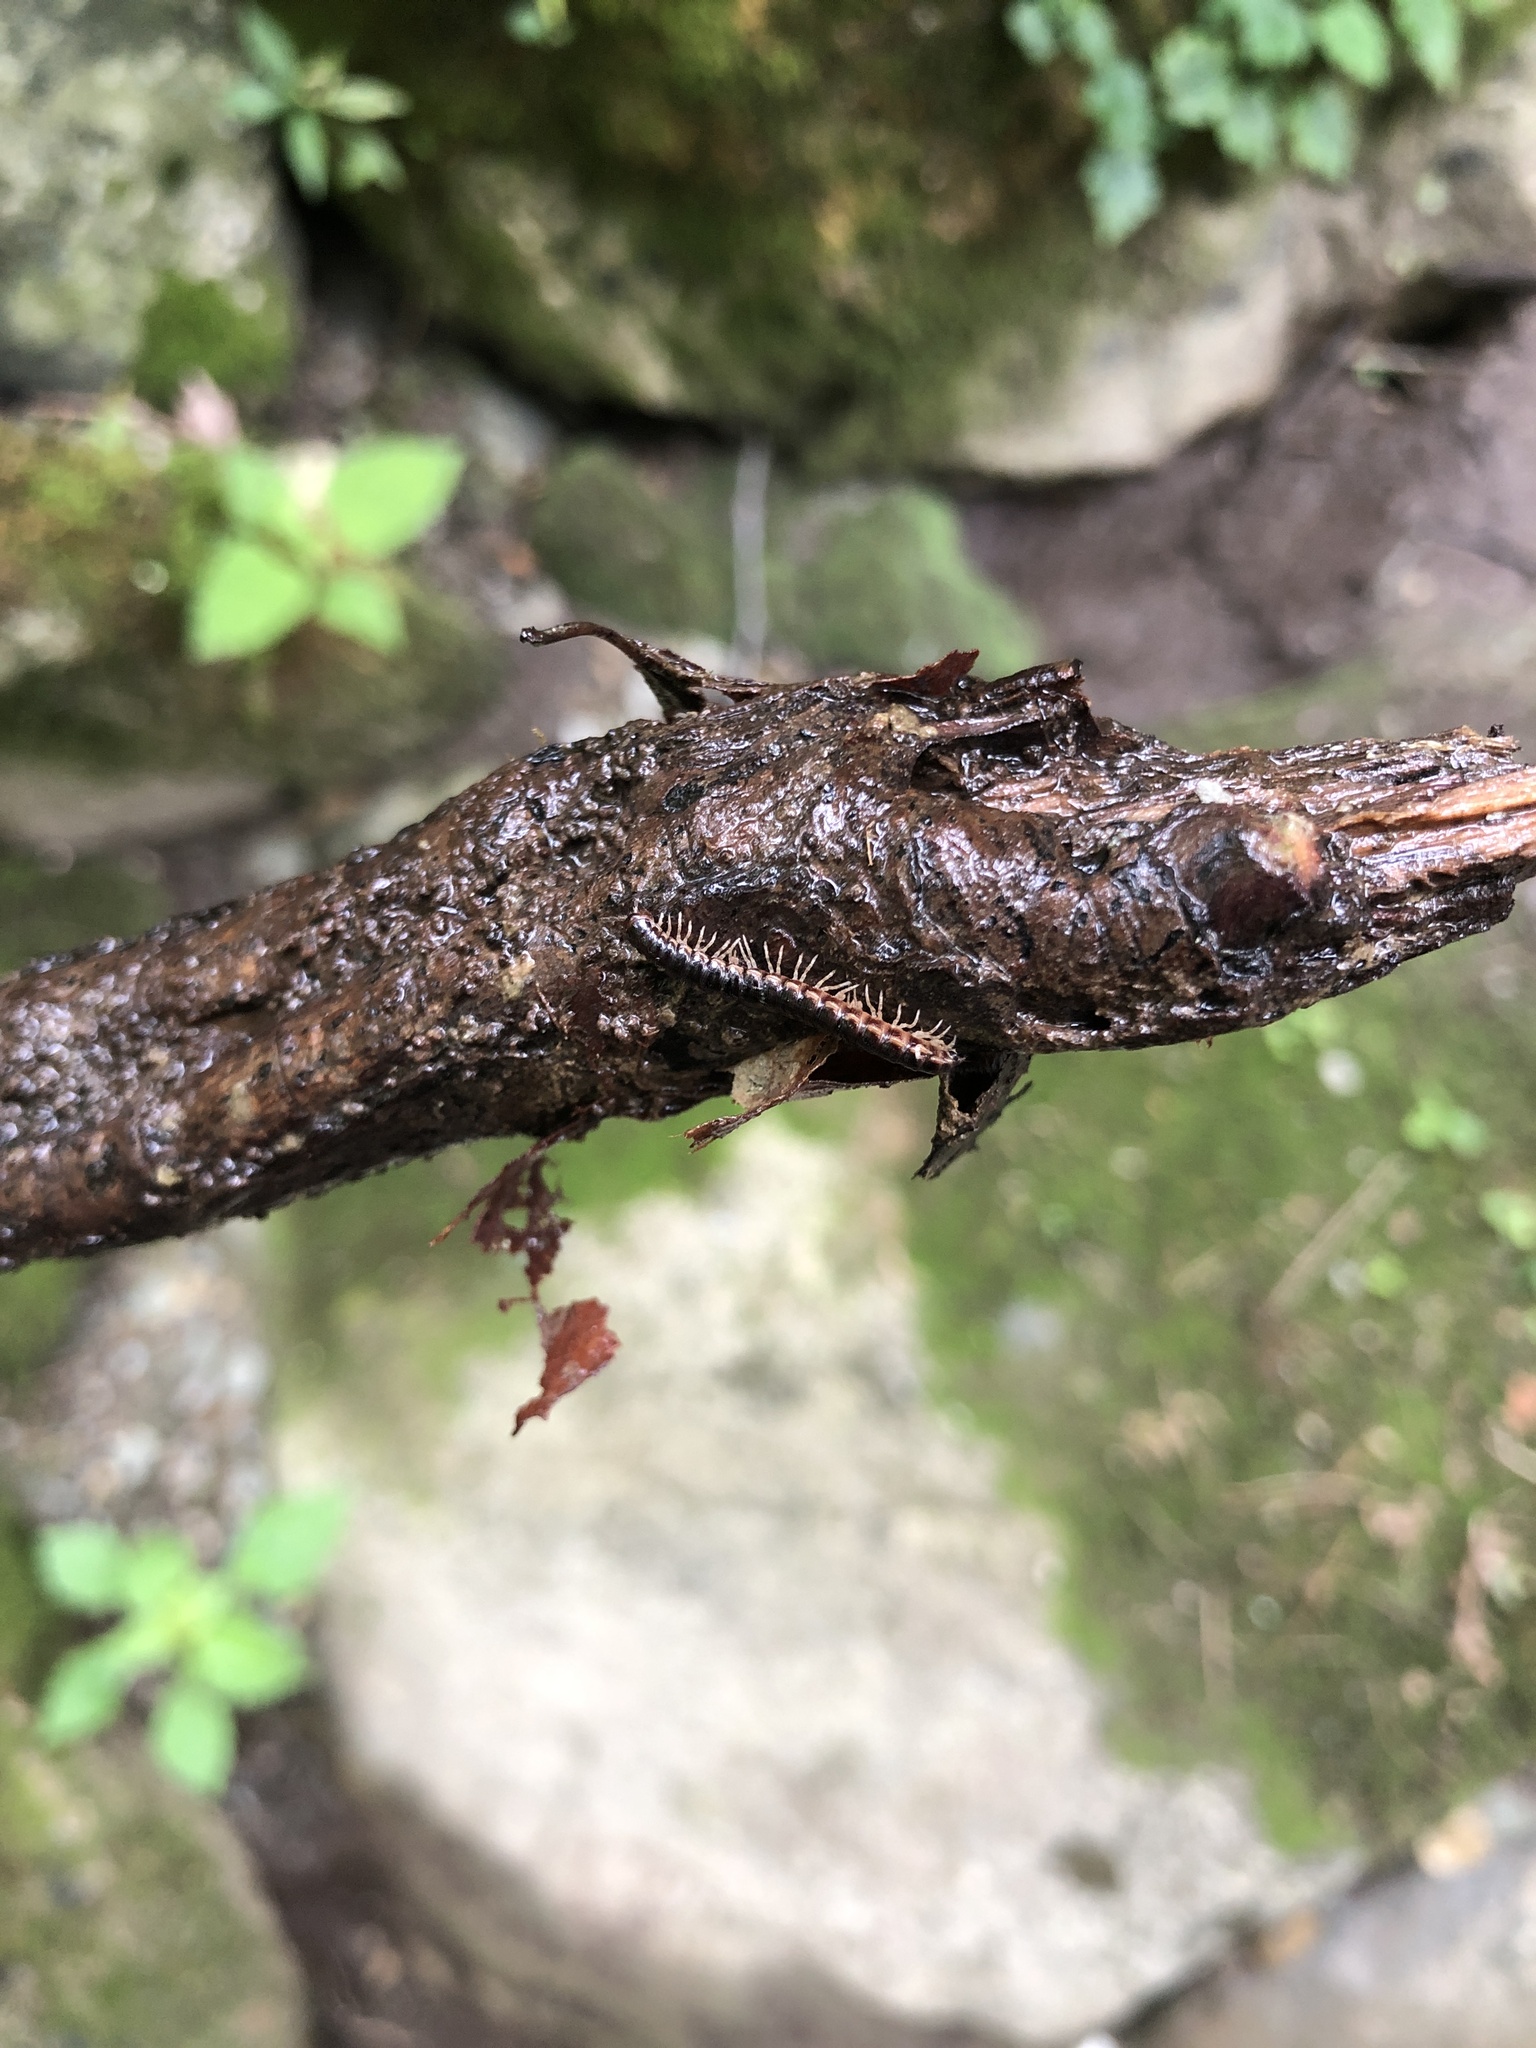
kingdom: Animalia
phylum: Arthropoda
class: Diplopoda
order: Polydesmida
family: Paradoxosomatidae
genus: Oxidus
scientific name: Oxidus gracilis
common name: Greenhouse millipede
